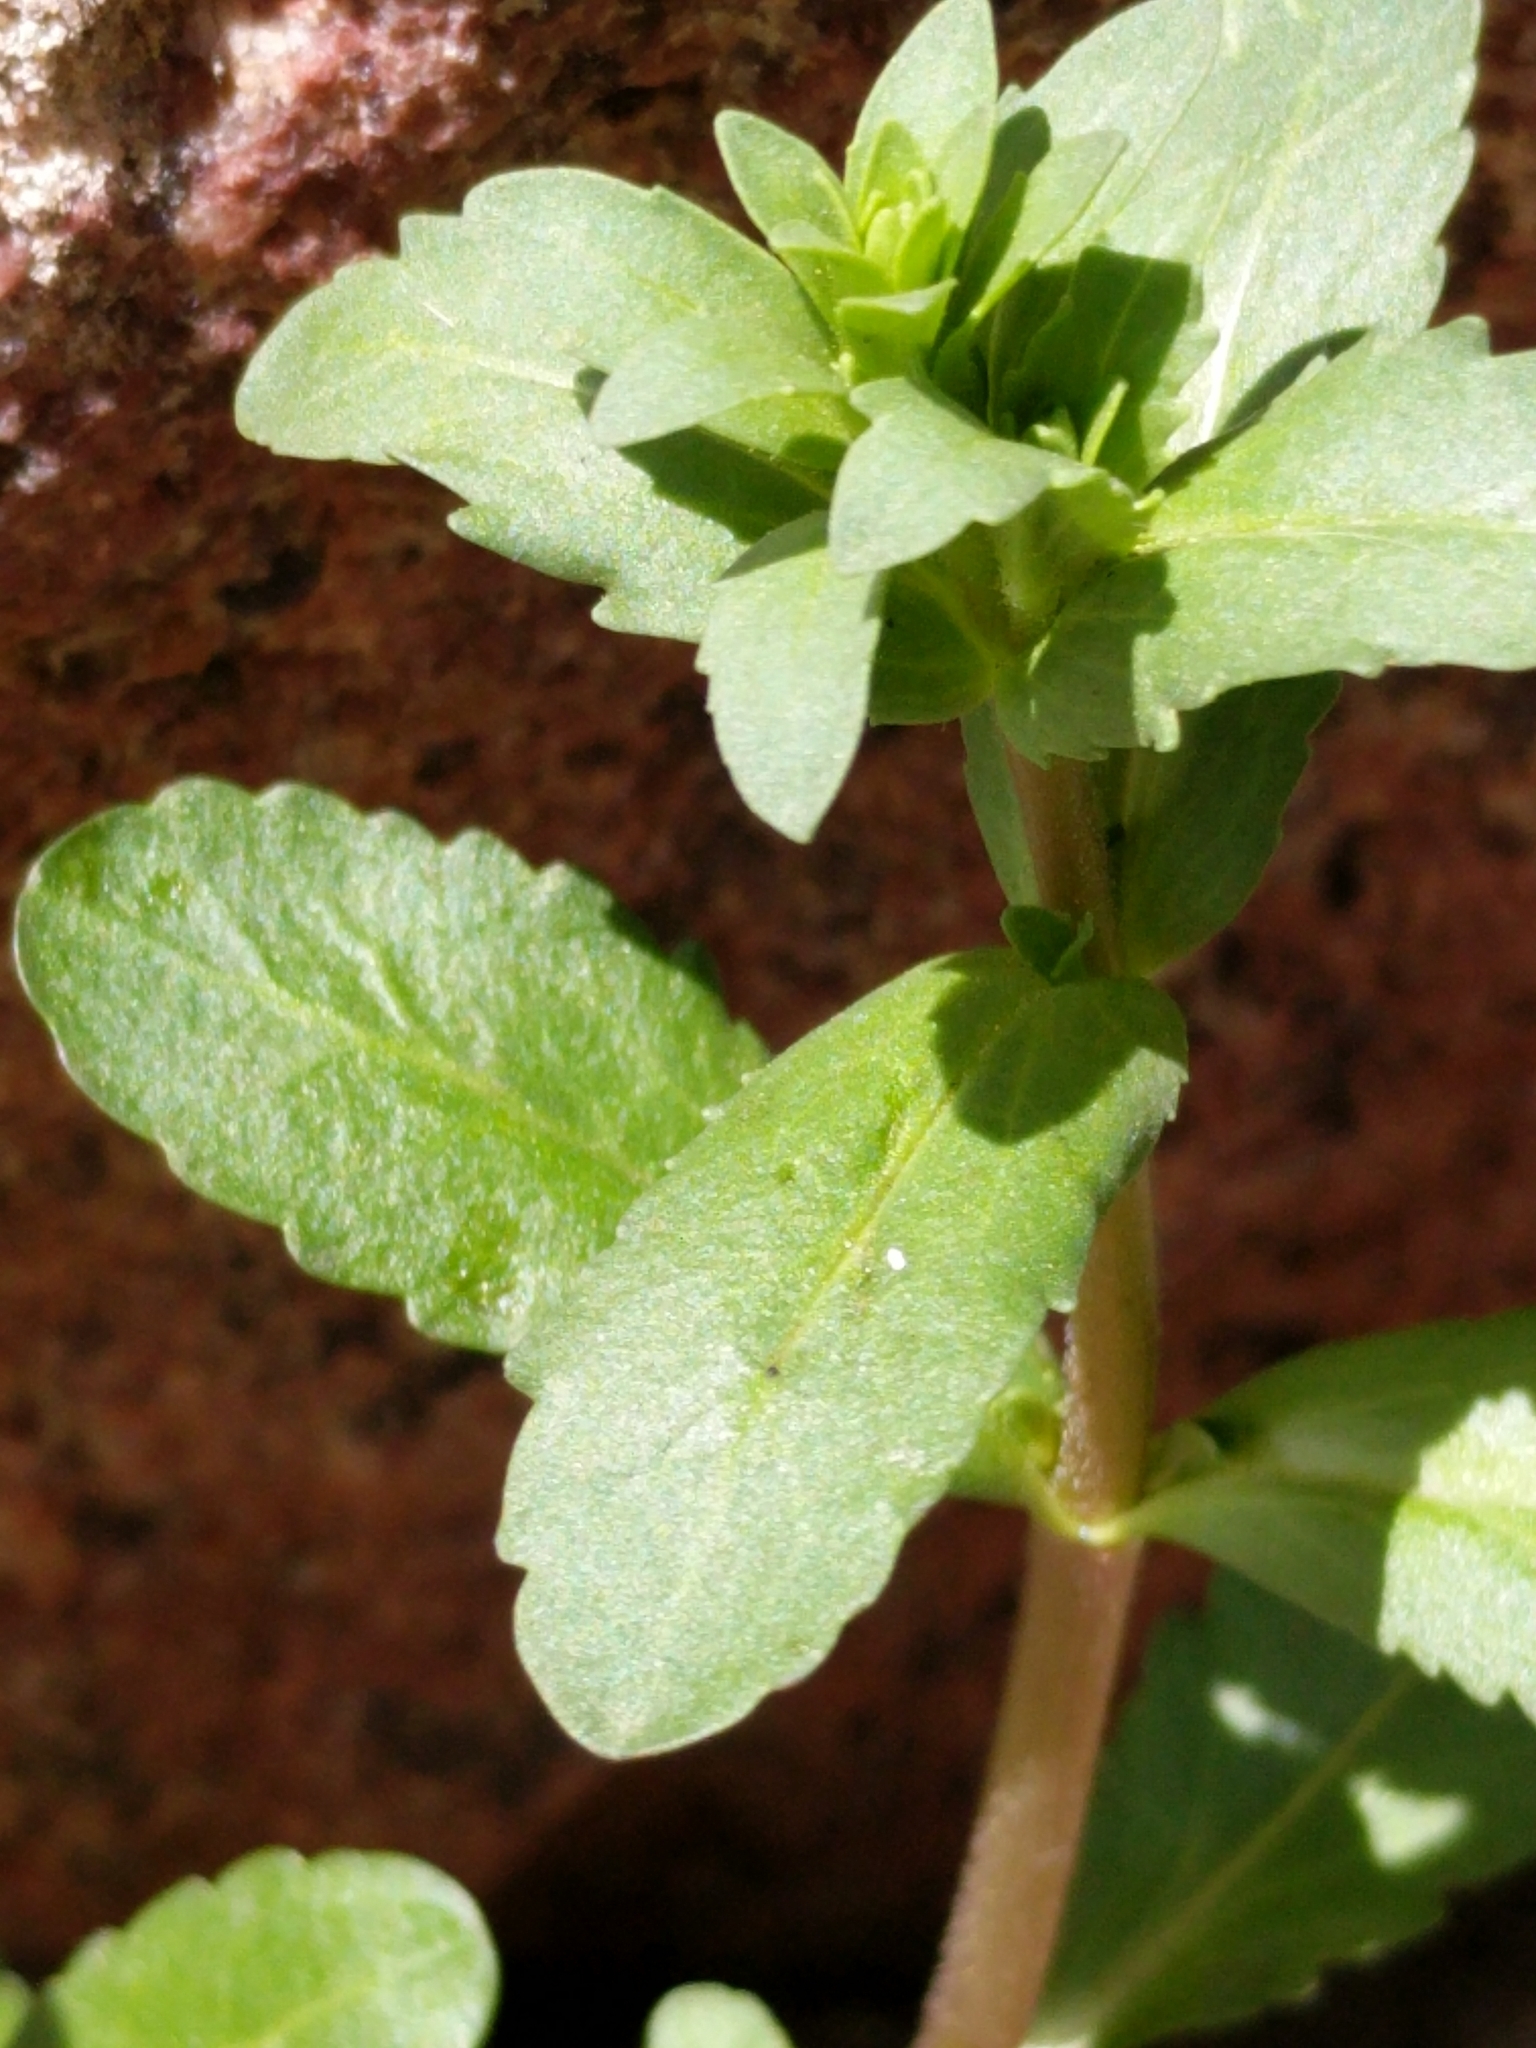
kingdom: Plantae
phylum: Tracheophyta
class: Magnoliopsida
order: Lamiales
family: Plantaginaceae
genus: Veronica
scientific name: Veronica peregrina
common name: Neckweed
